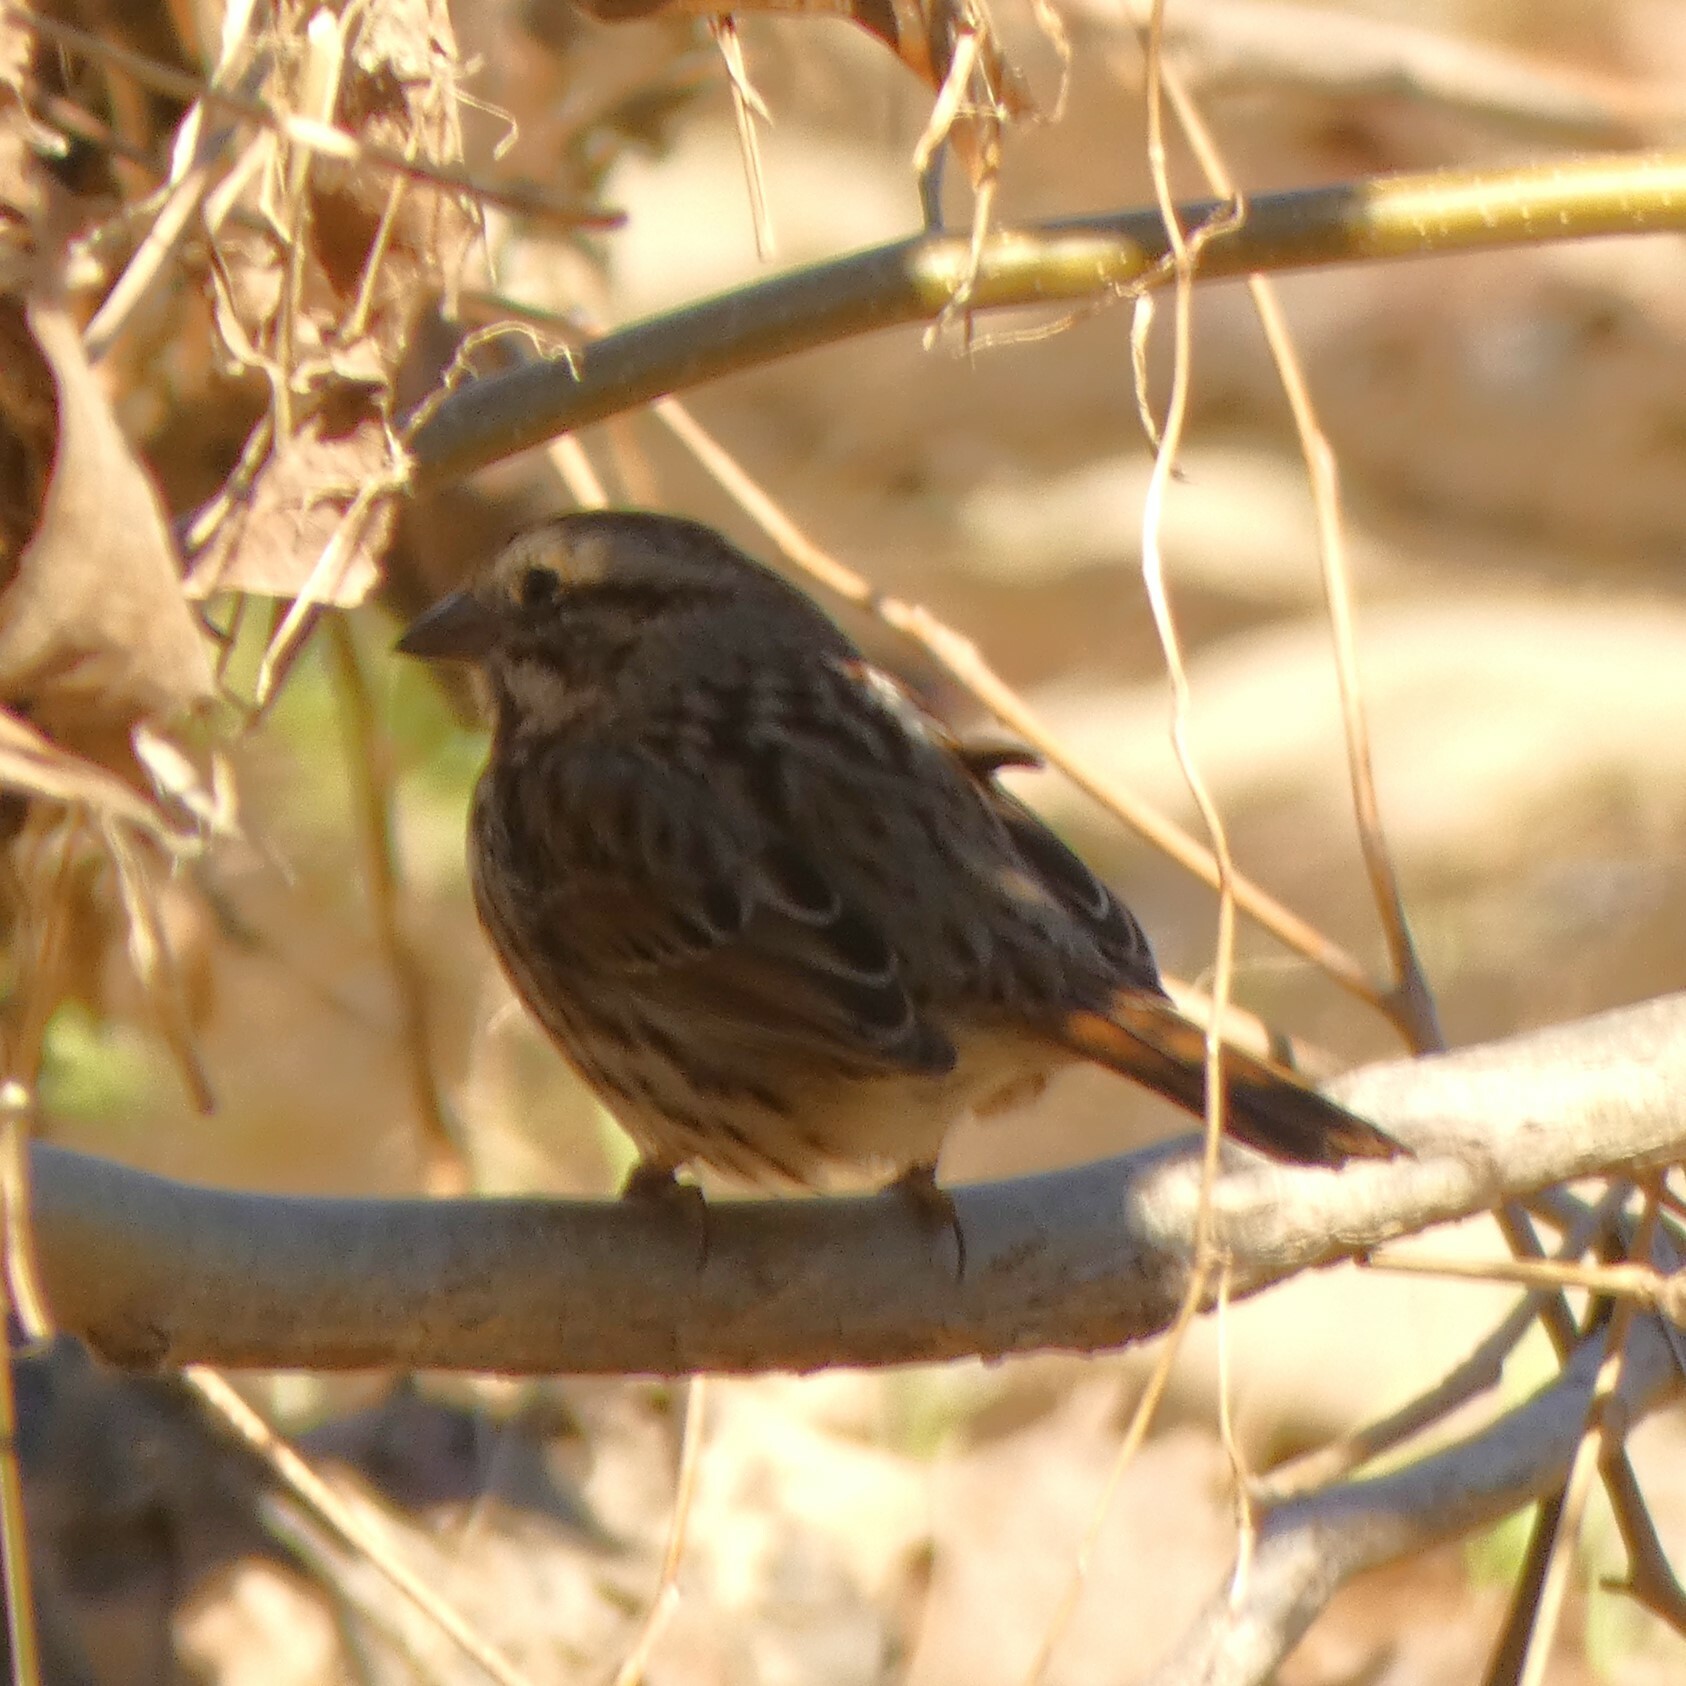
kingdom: Animalia
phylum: Chordata
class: Aves
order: Passeriformes
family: Passerellidae
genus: Melospiza
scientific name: Melospiza melodia
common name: Song sparrow
